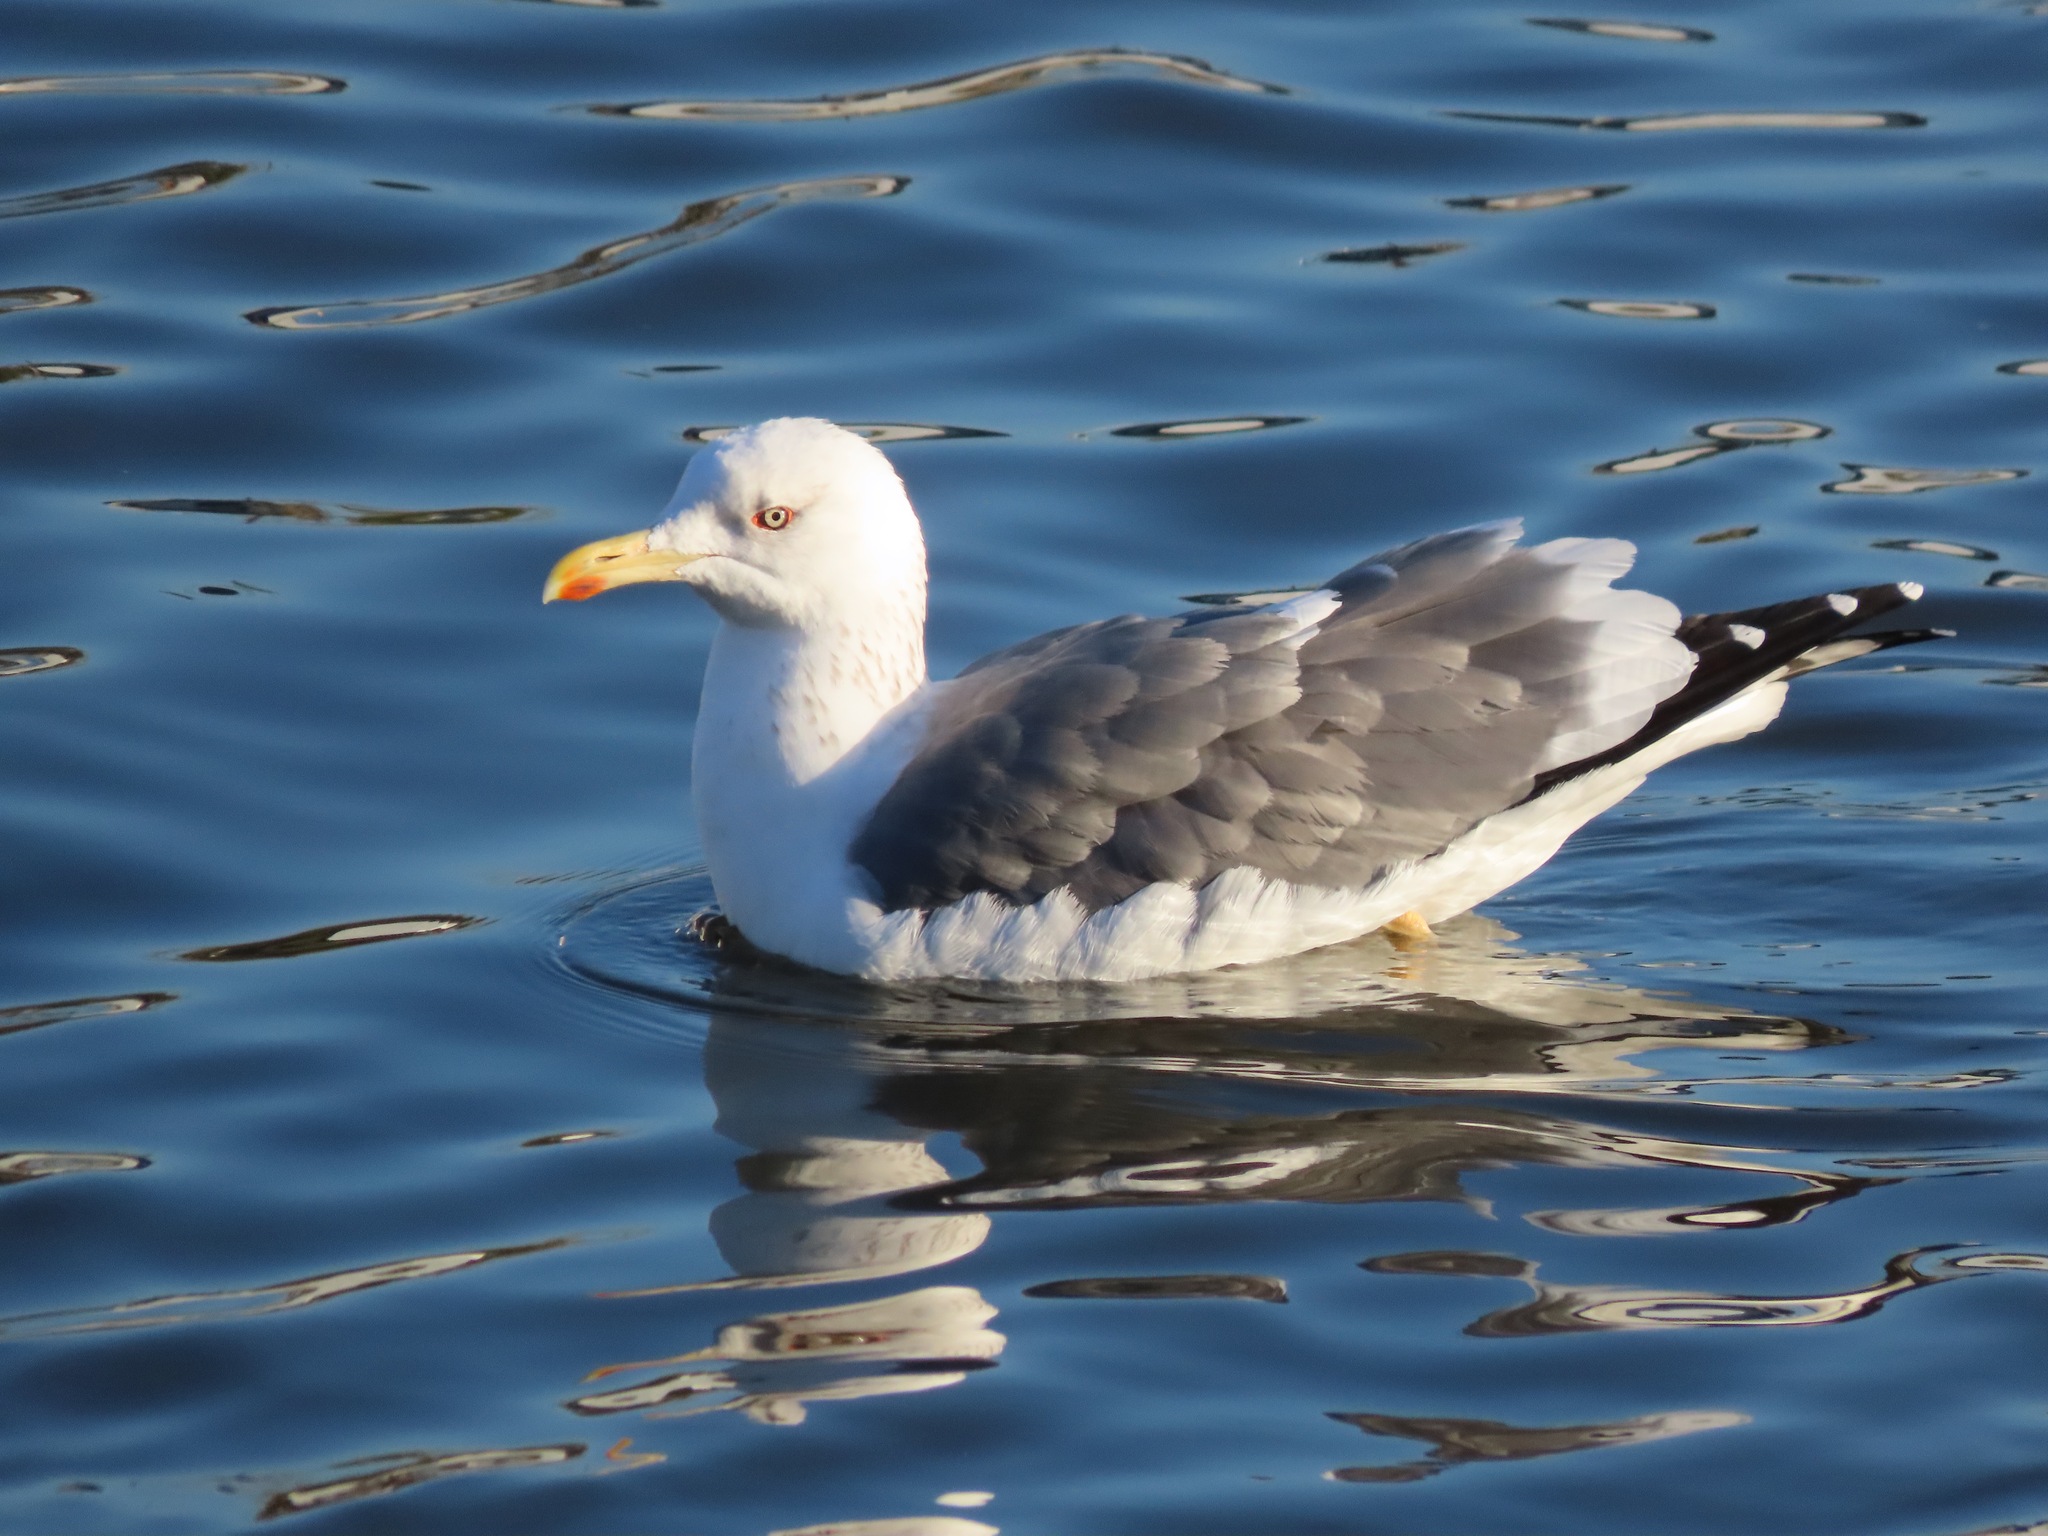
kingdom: Animalia
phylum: Chordata
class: Aves
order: Charadriiformes
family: Laridae
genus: Larus
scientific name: Larus schistisagus
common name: Slaty-backed gull
